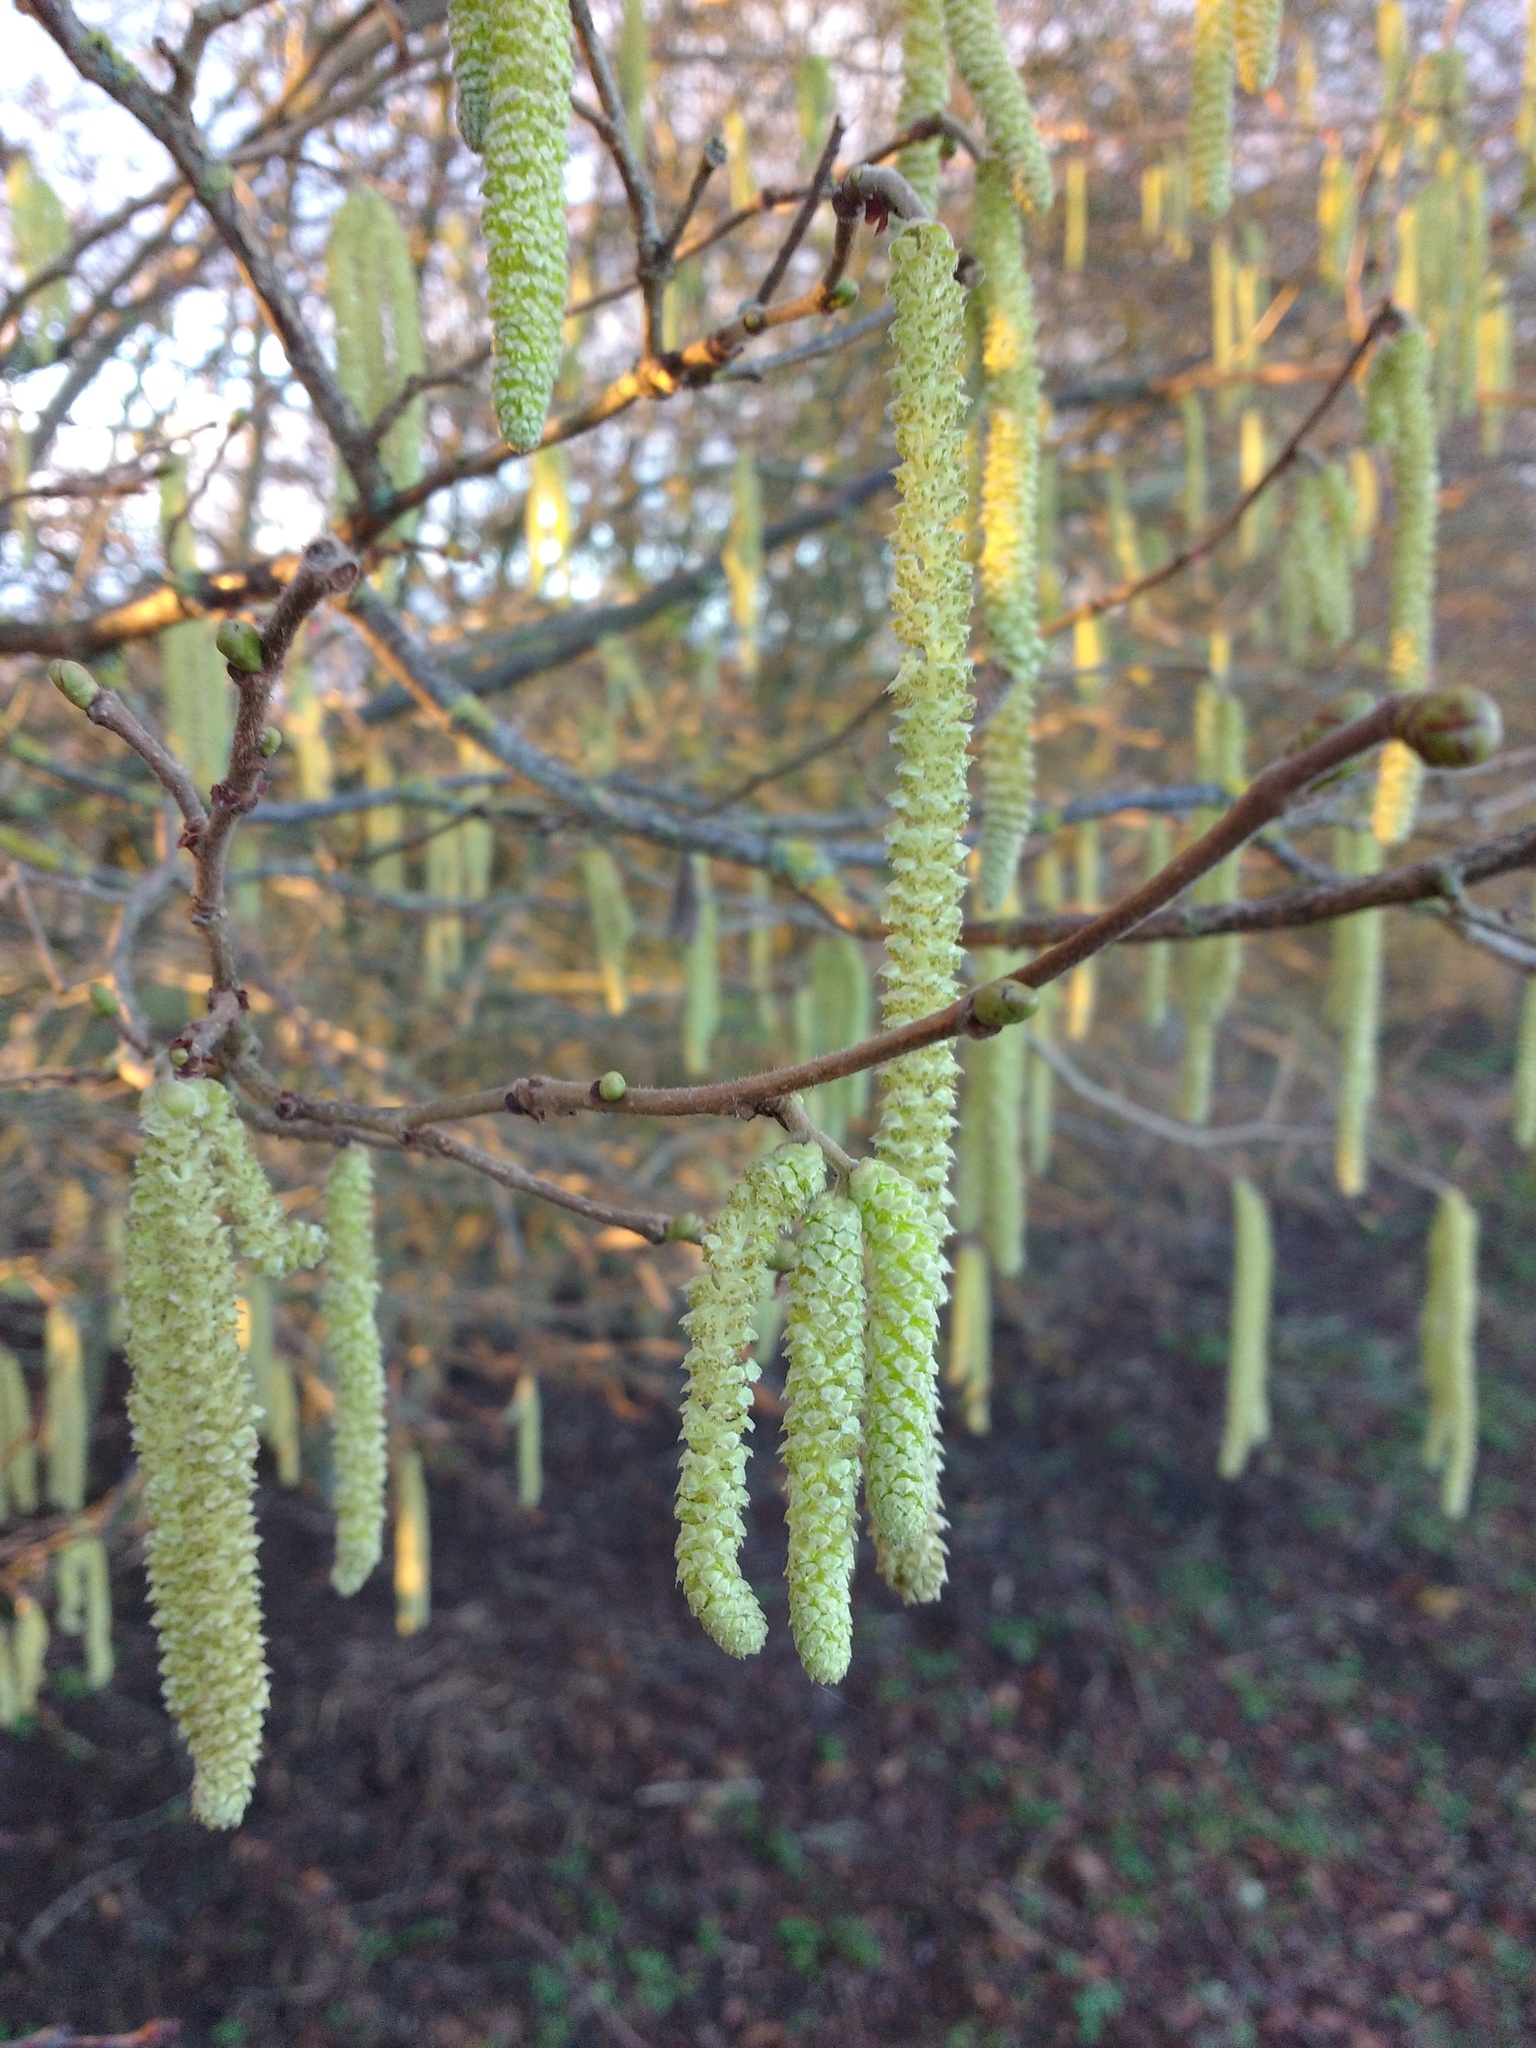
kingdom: Plantae
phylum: Tracheophyta
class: Magnoliopsida
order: Fagales
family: Betulaceae
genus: Corylus
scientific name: Corylus avellana
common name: European hazel
